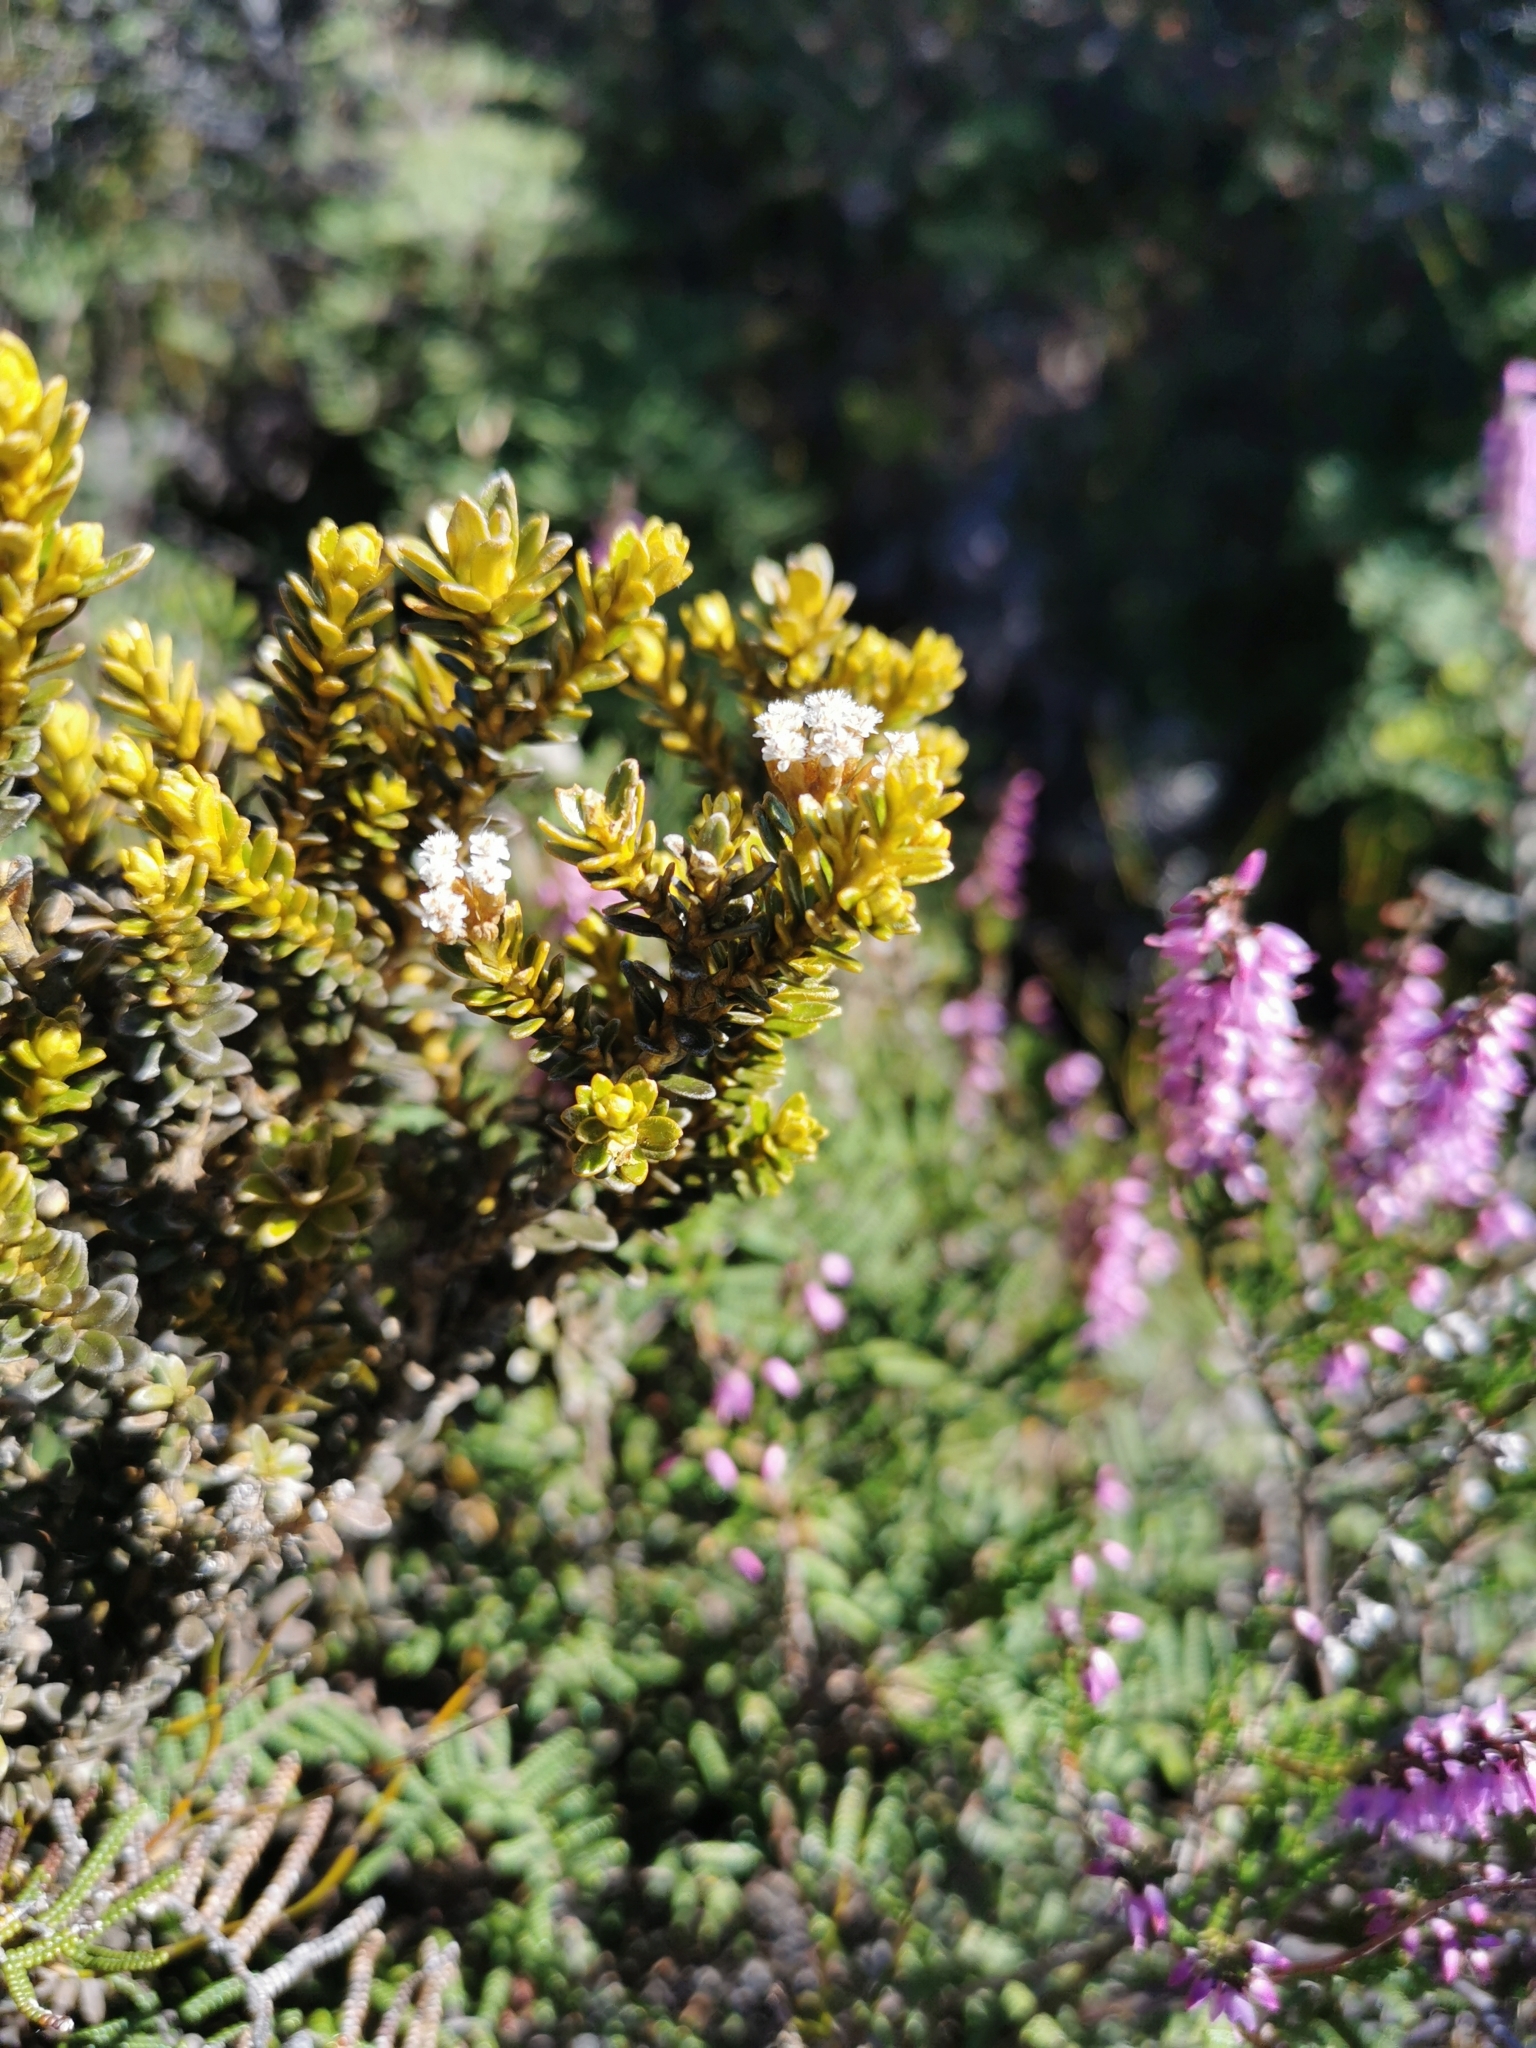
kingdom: Plantae
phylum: Tracheophyta
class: Magnoliopsida
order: Asterales
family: Asteraceae
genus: Ozothamnus
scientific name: Ozothamnus leptophyllus
